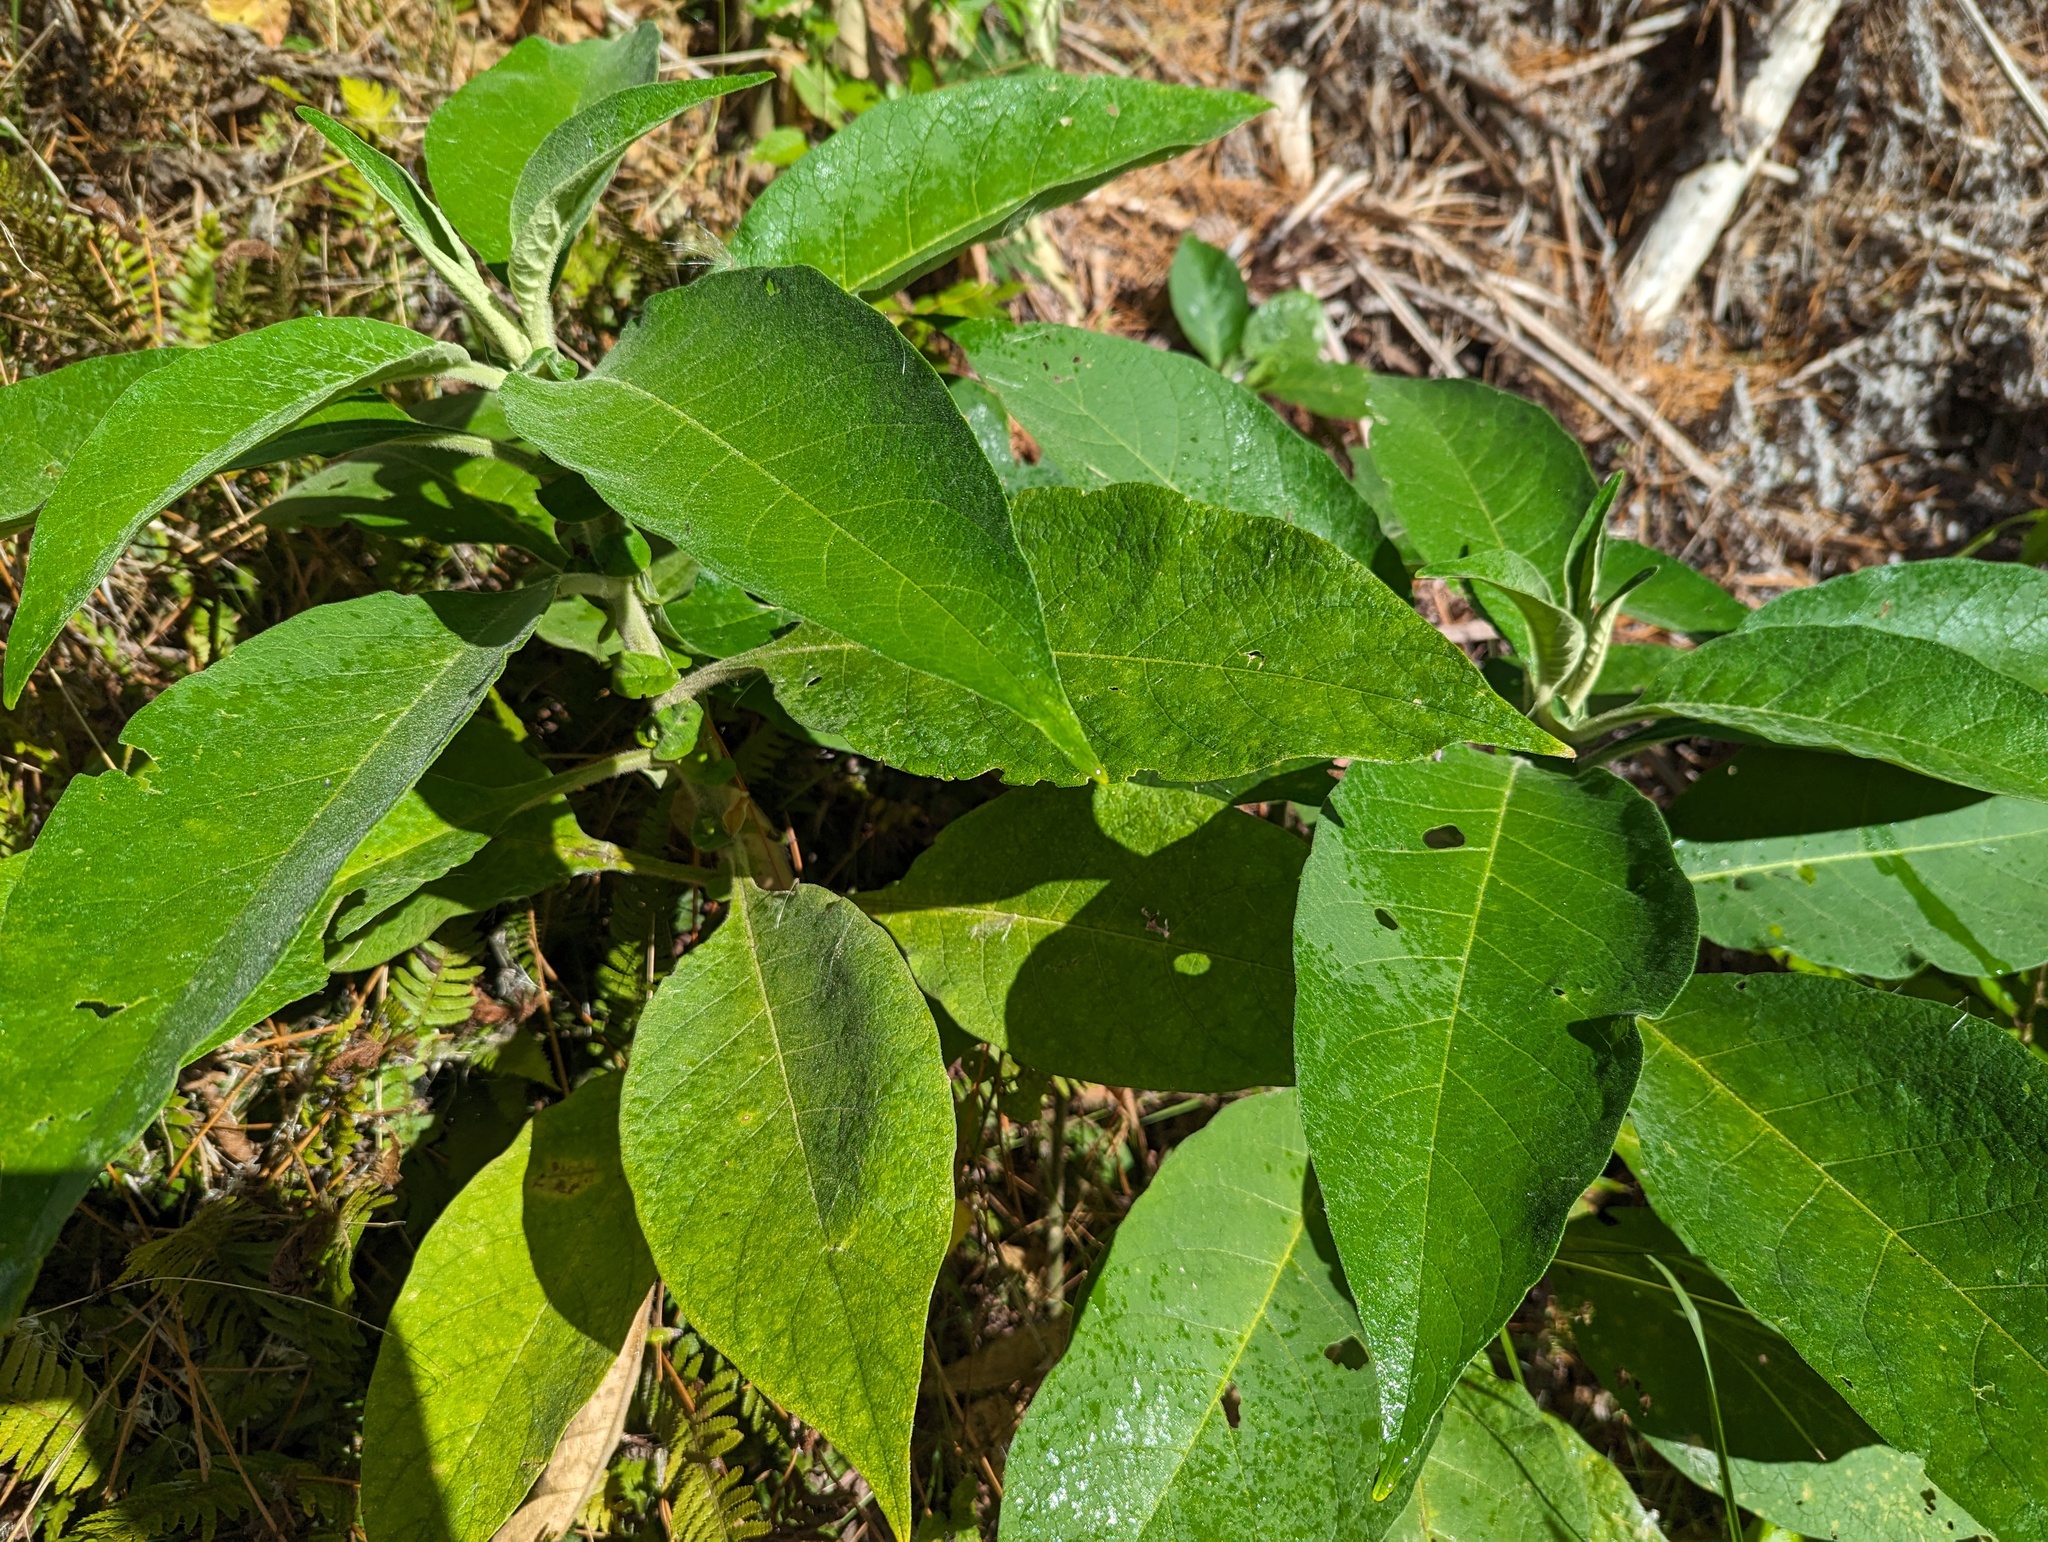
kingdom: Plantae
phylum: Tracheophyta
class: Magnoliopsida
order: Solanales
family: Solanaceae
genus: Solanum
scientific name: Solanum mauritianum
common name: Earleaf nightshade
